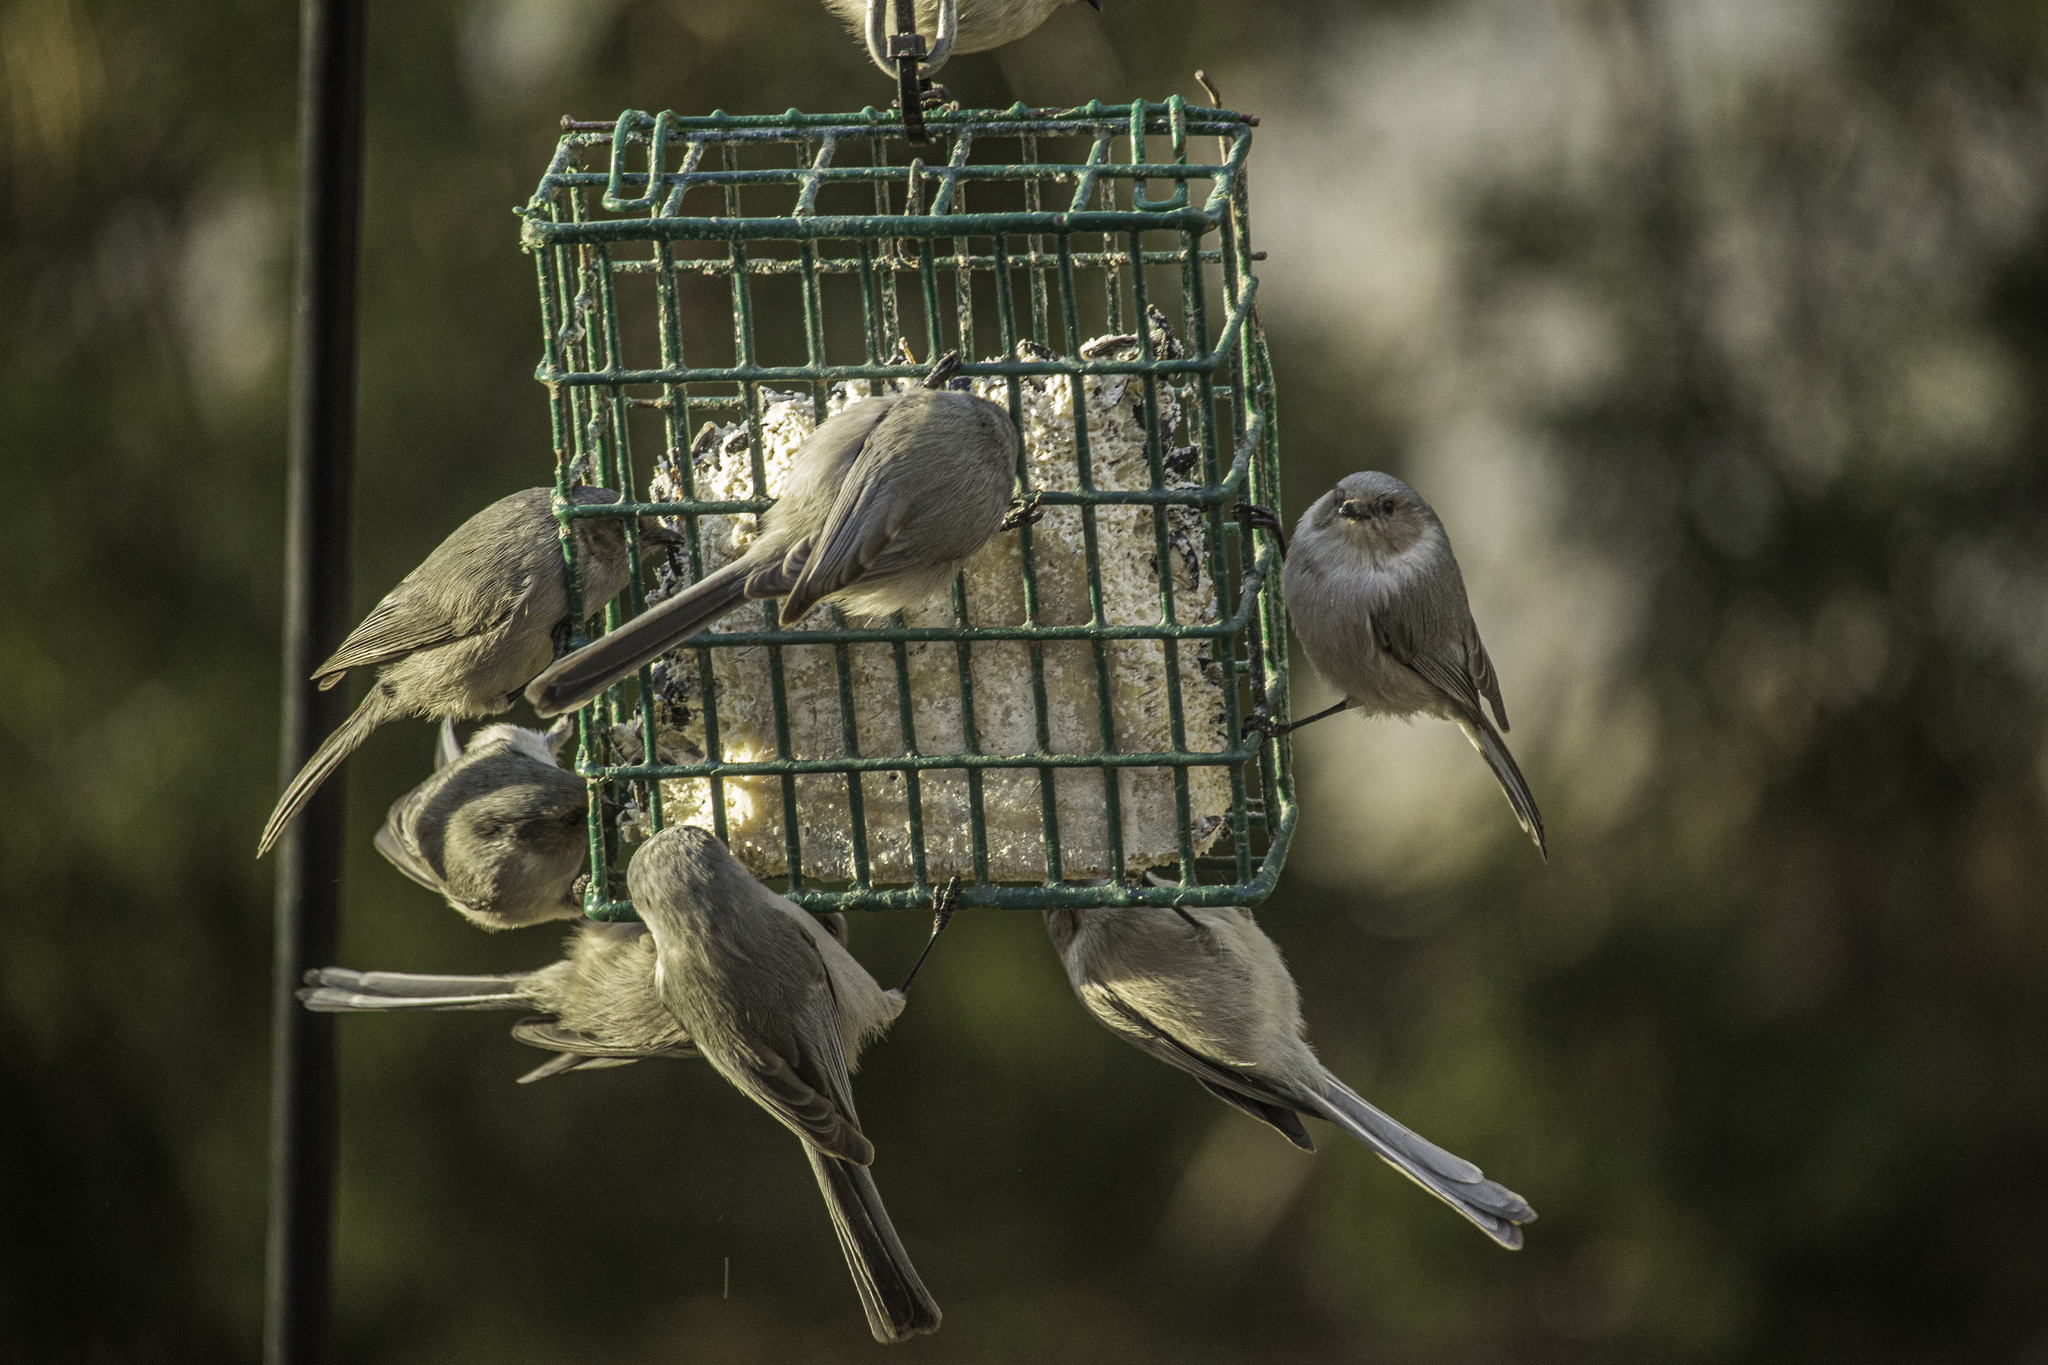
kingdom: Animalia
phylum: Chordata
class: Aves
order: Passeriformes
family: Aegithalidae
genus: Psaltriparus
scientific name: Psaltriparus minimus
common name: American bushtit
